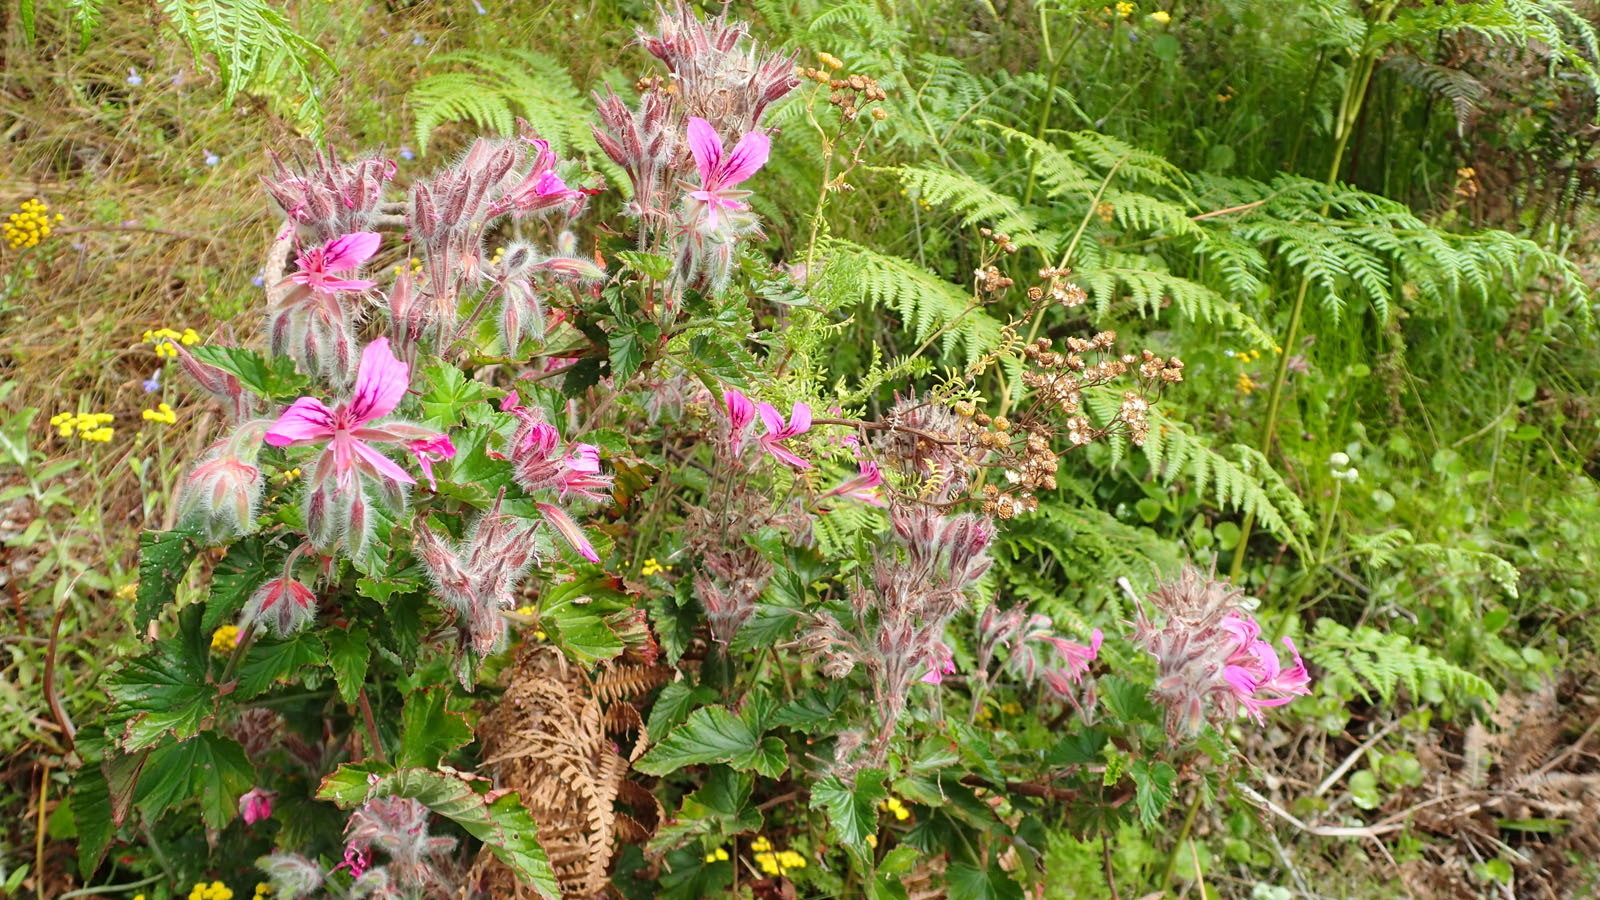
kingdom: Plantae
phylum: Tracheophyta
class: Magnoliopsida
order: Geraniales
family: Geraniaceae
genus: Pelargonium
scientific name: Pelargonium cordifolium
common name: Heart-leaf pelargonium
